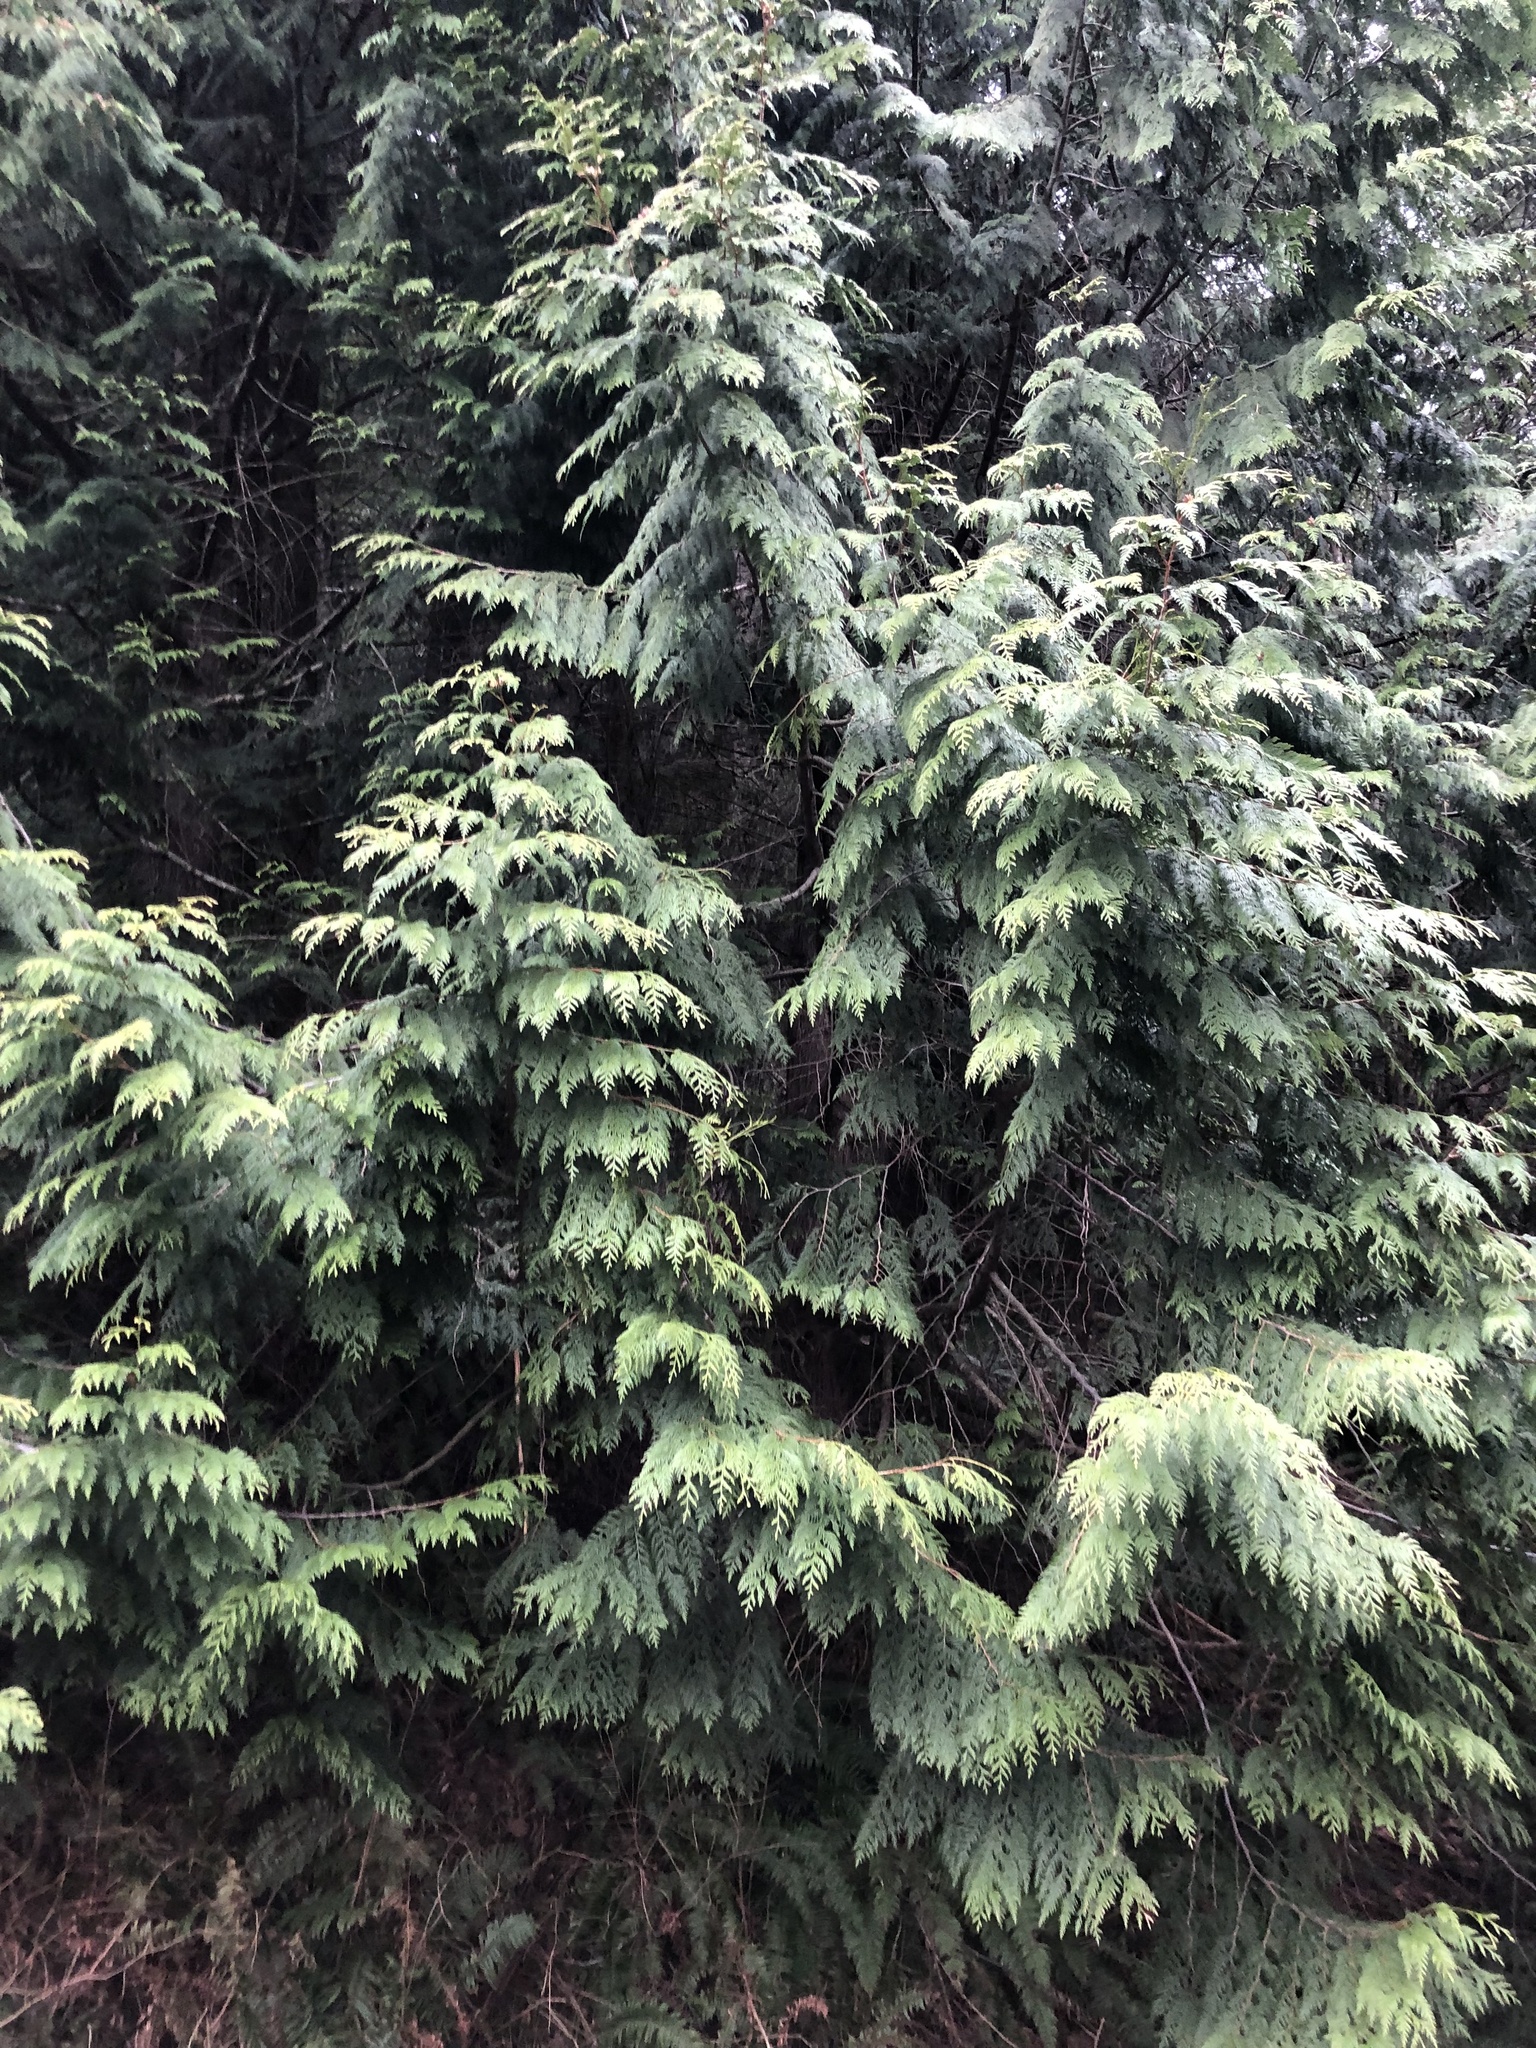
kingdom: Plantae
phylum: Tracheophyta
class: Pinopsida
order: Pinales
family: Cupressaceae
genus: Thuja
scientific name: Thuja plicata
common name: Western red-cedar
